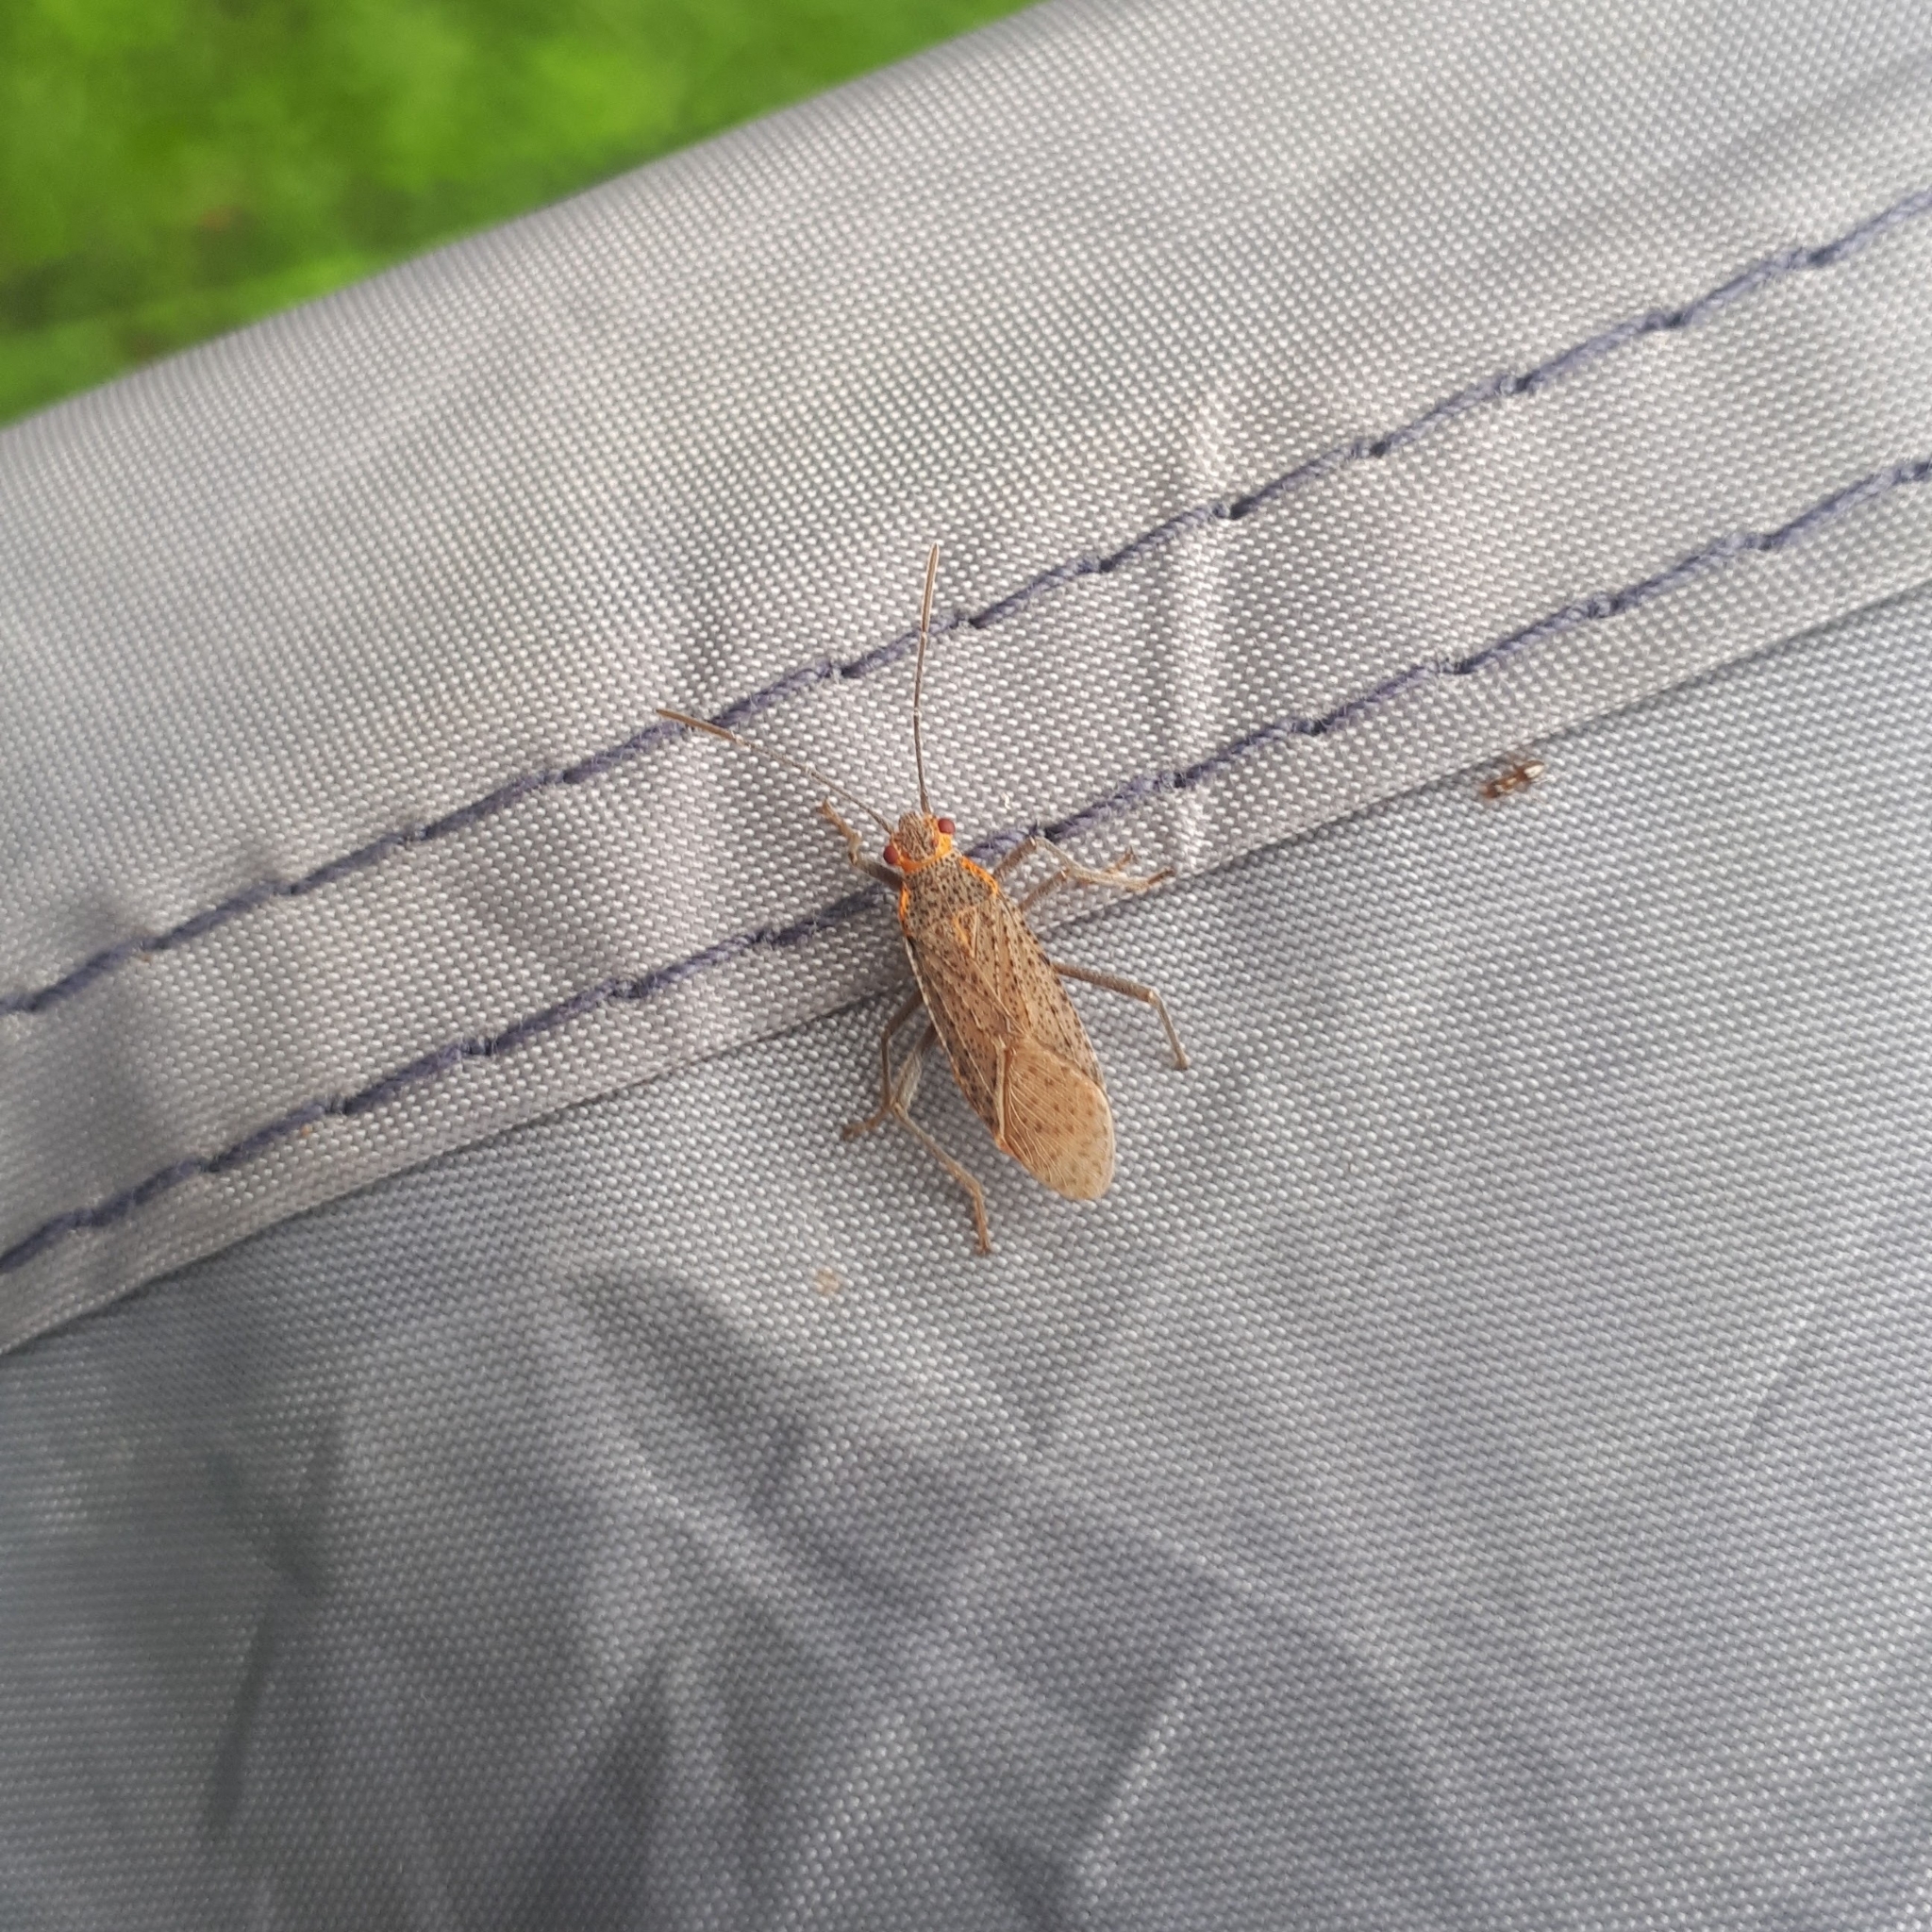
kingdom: Animalia
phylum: Arthropoda
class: Insecta
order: Hemiptera
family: Rhopalidae
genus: Jadera
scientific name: Jadera coturnix
